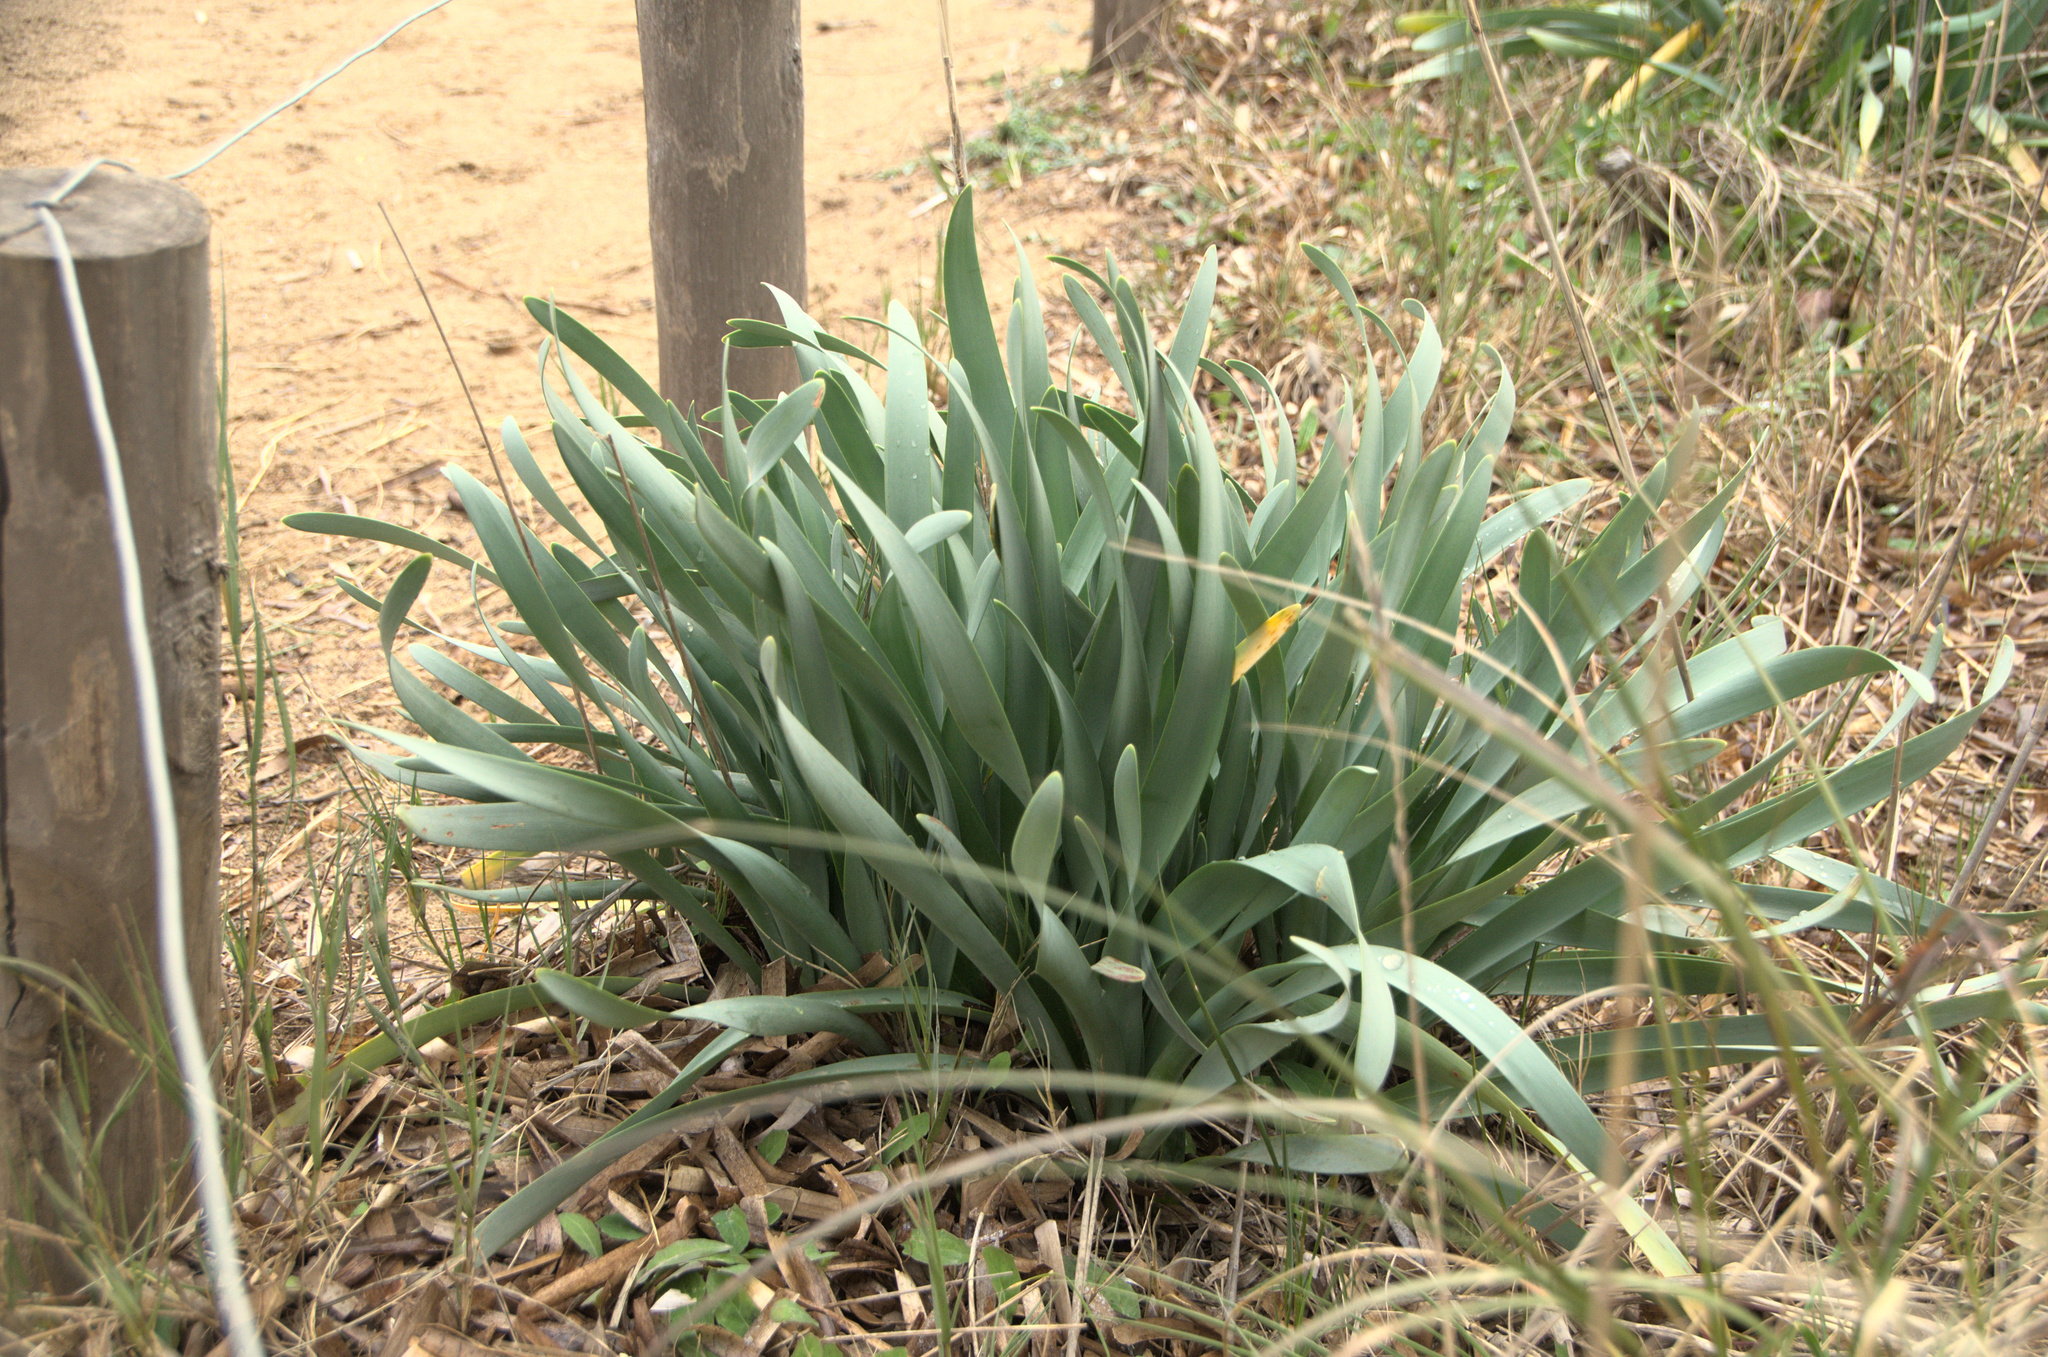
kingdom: Plantae
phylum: Tracheophyta
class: Liliopsida
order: Asparagales
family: Amaryllidaceae
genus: Pancratium
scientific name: Pancratium maritimum
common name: Sea-daffodil
